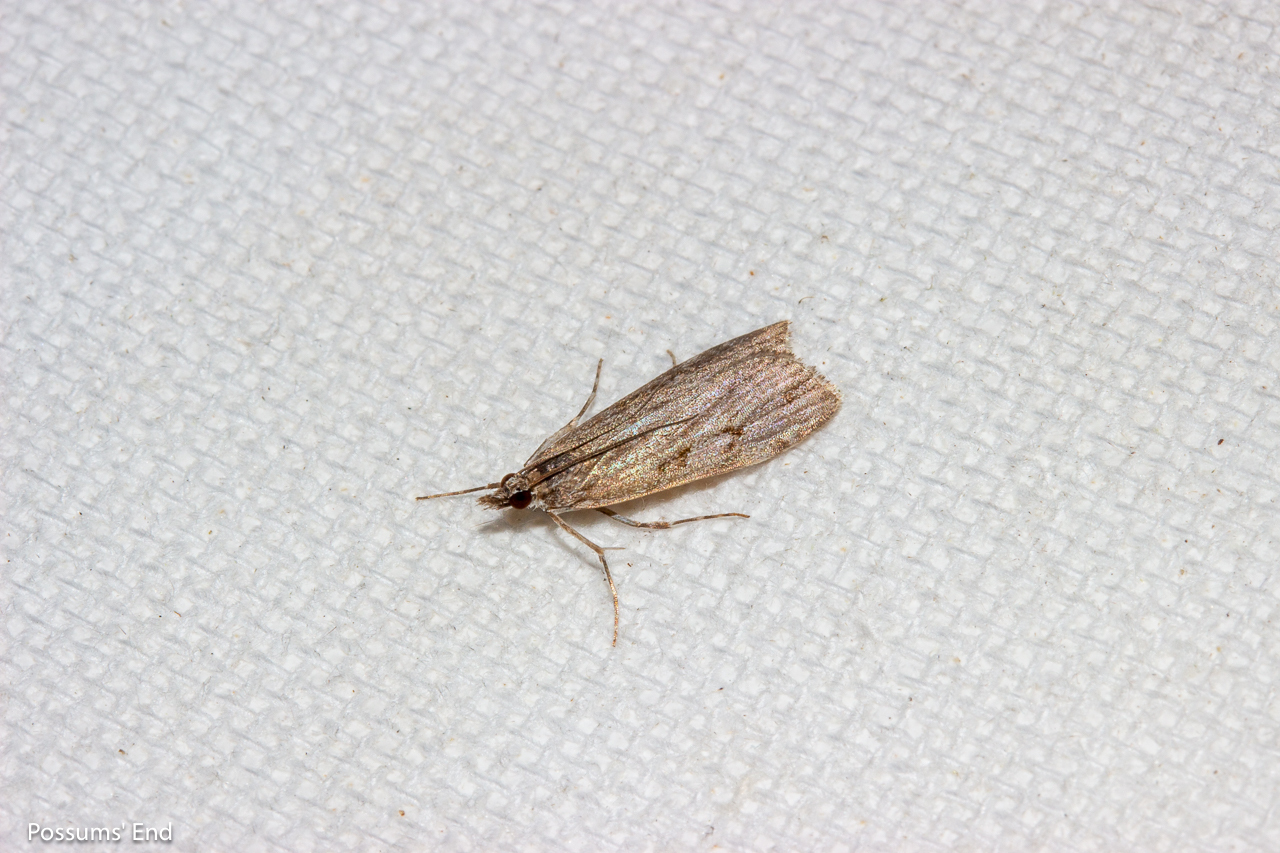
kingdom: Animalia
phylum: Arthropoda
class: Insecta
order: Lepidoptera
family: Crambidae
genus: Eudonia
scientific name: Eudonia cymatias
